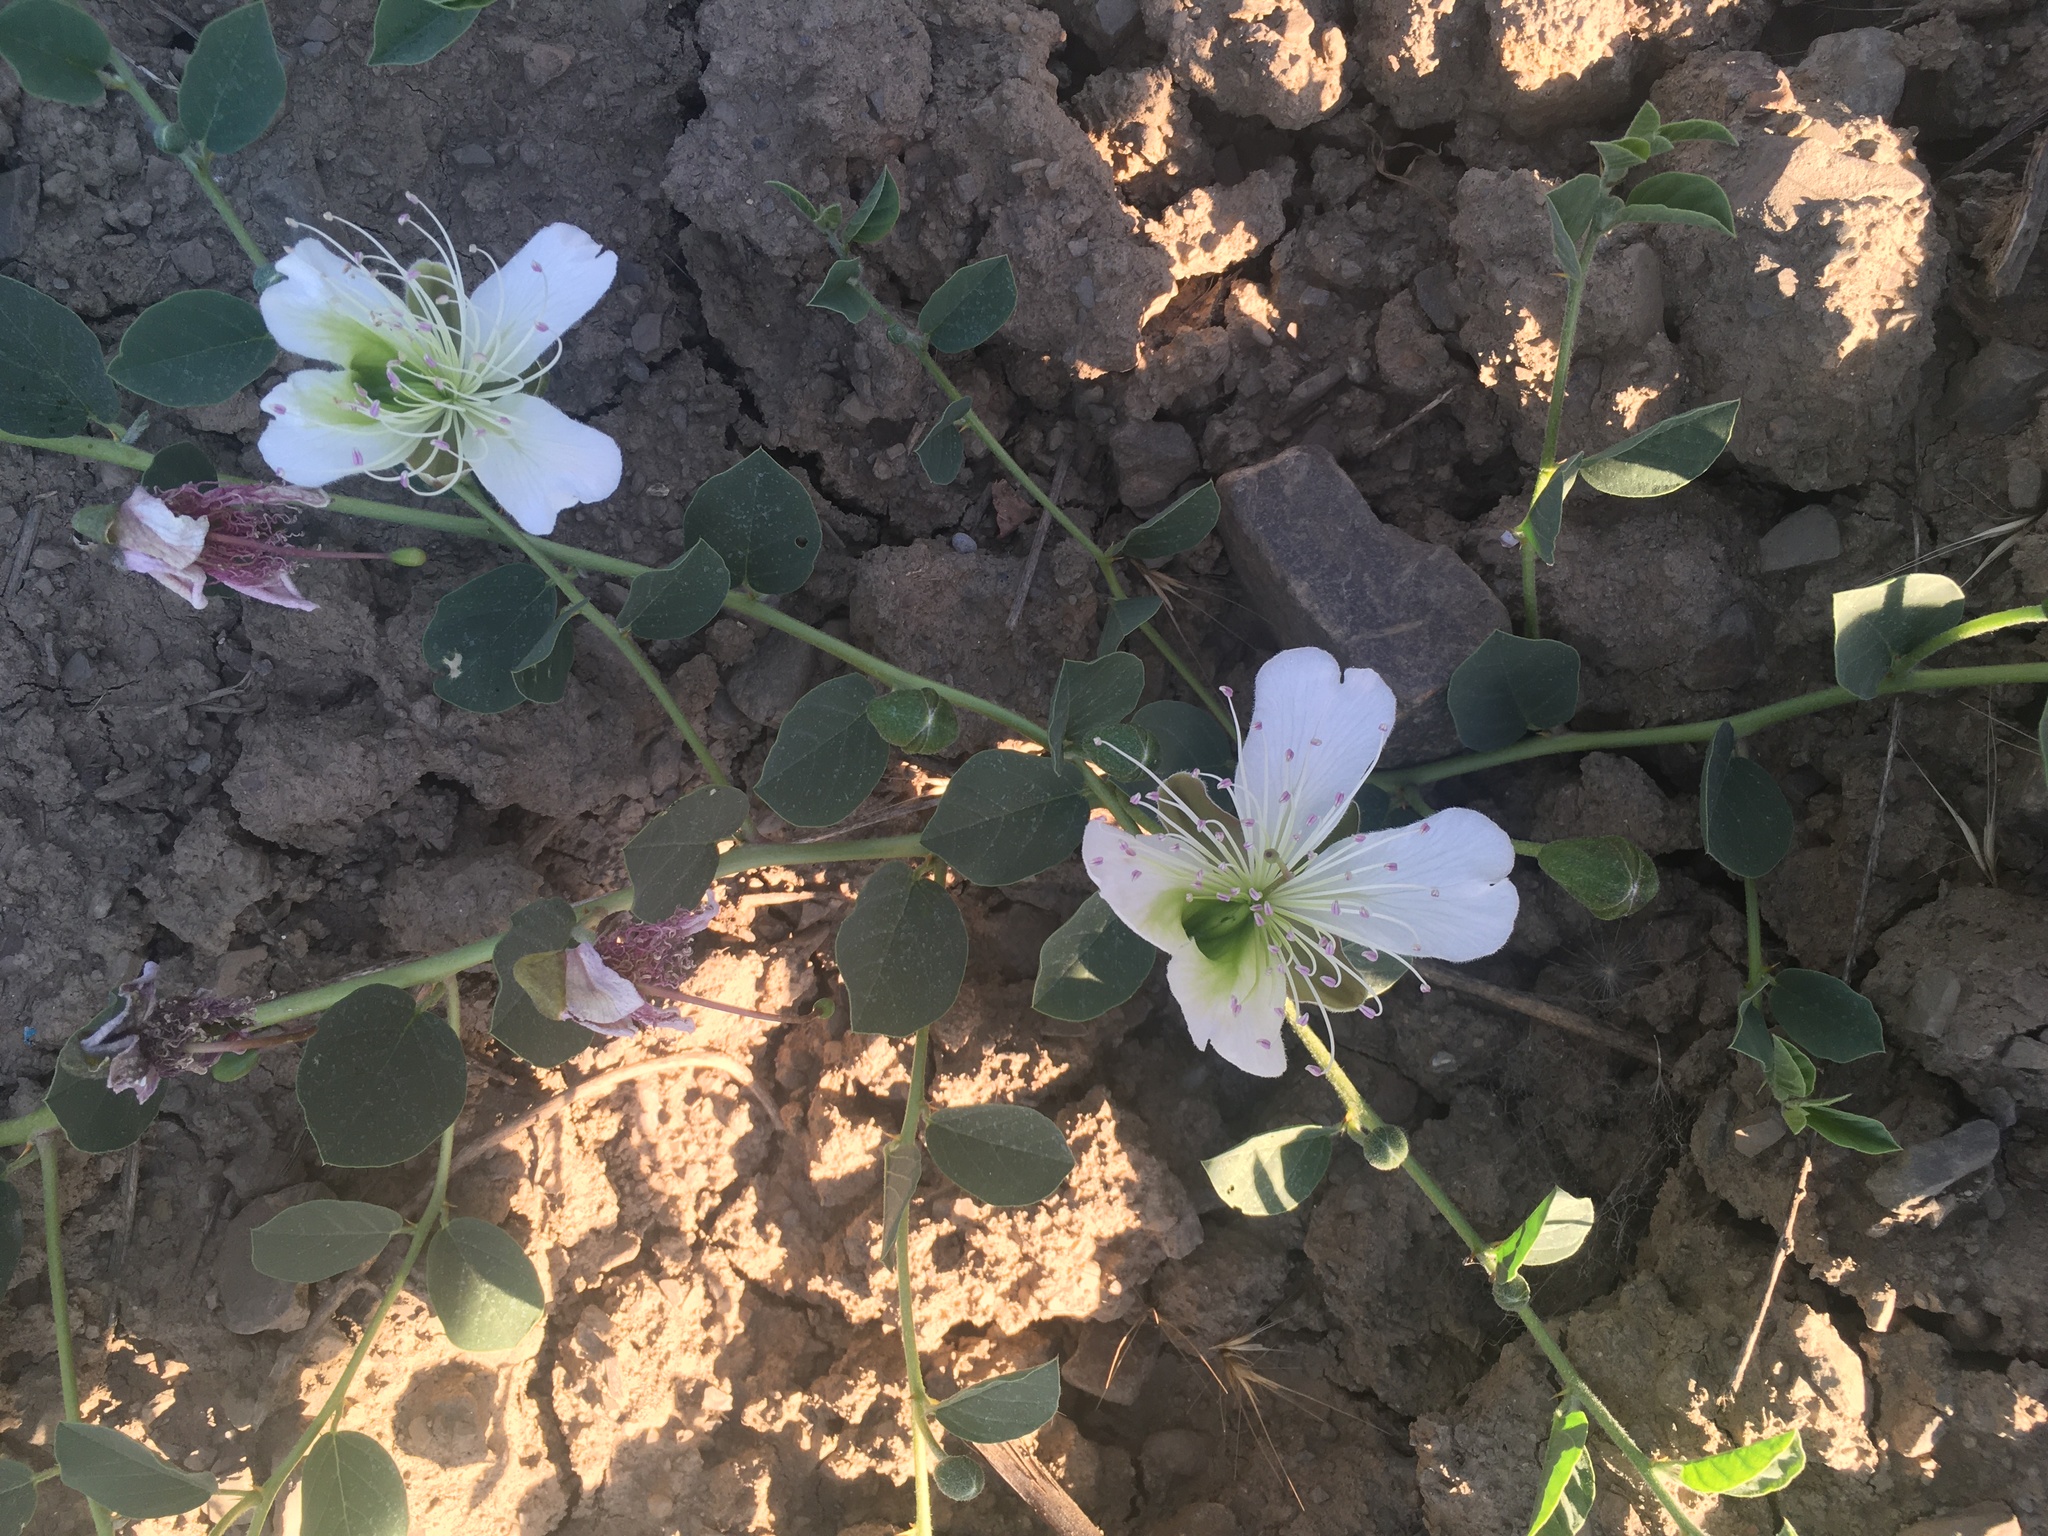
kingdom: Plantae
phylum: Tracheophyta
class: Magnoliopsida
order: Brassicales
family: Capparaceae
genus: Capparis
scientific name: Capparis spinosa
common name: Caper
